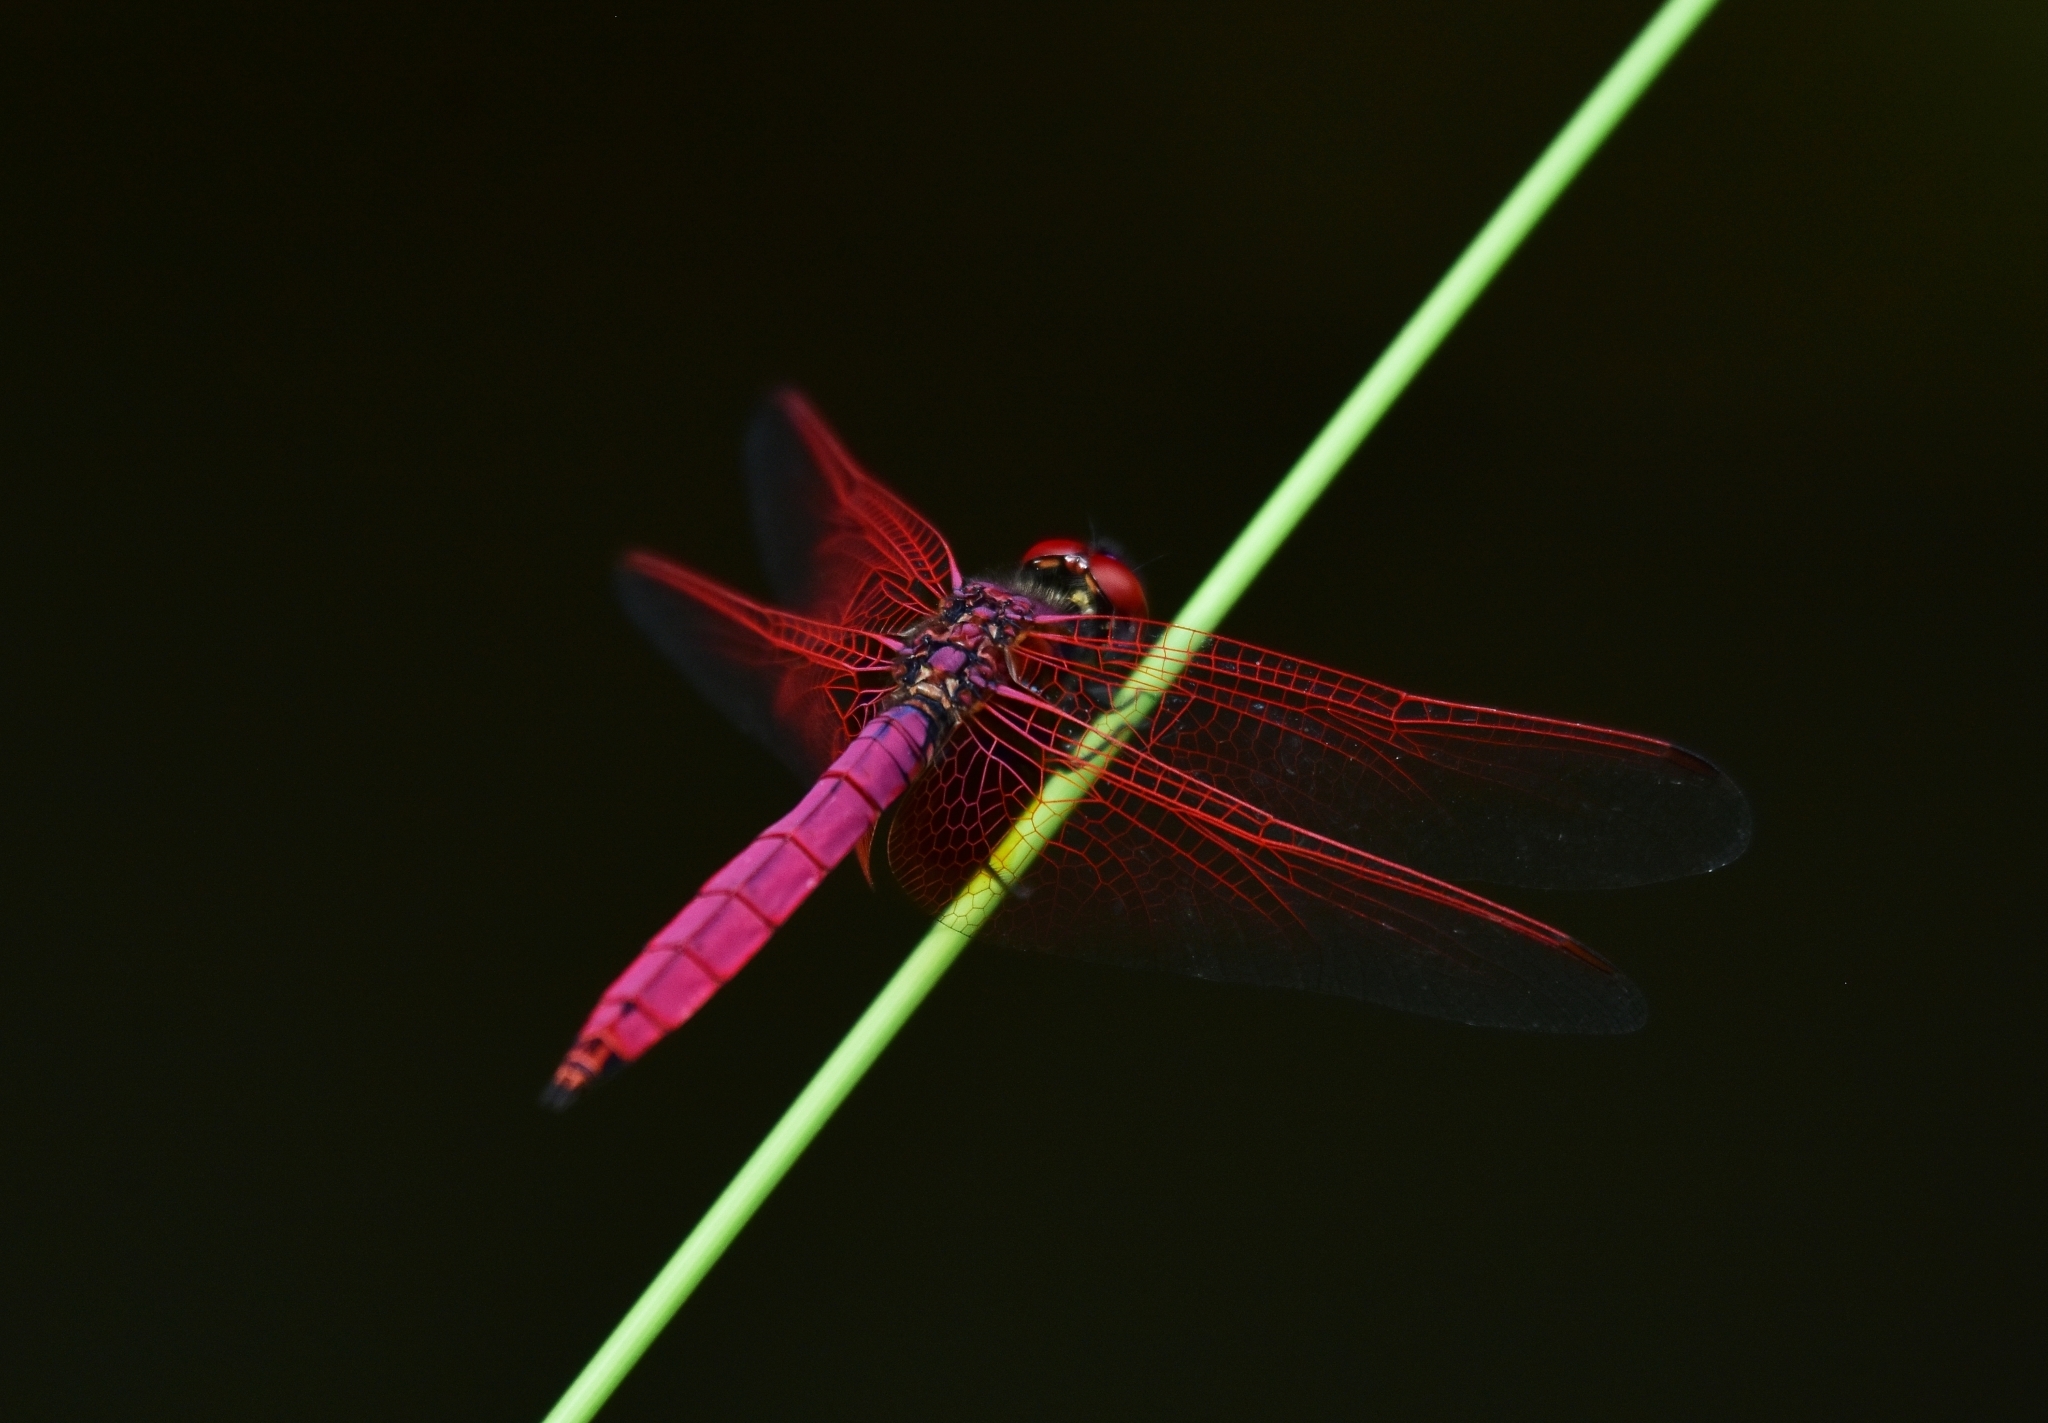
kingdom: Animalia
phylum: Arthropoda
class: Insecta
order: Odonata
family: Libellulidae
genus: Trithemis
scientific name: Trithemis aurora
